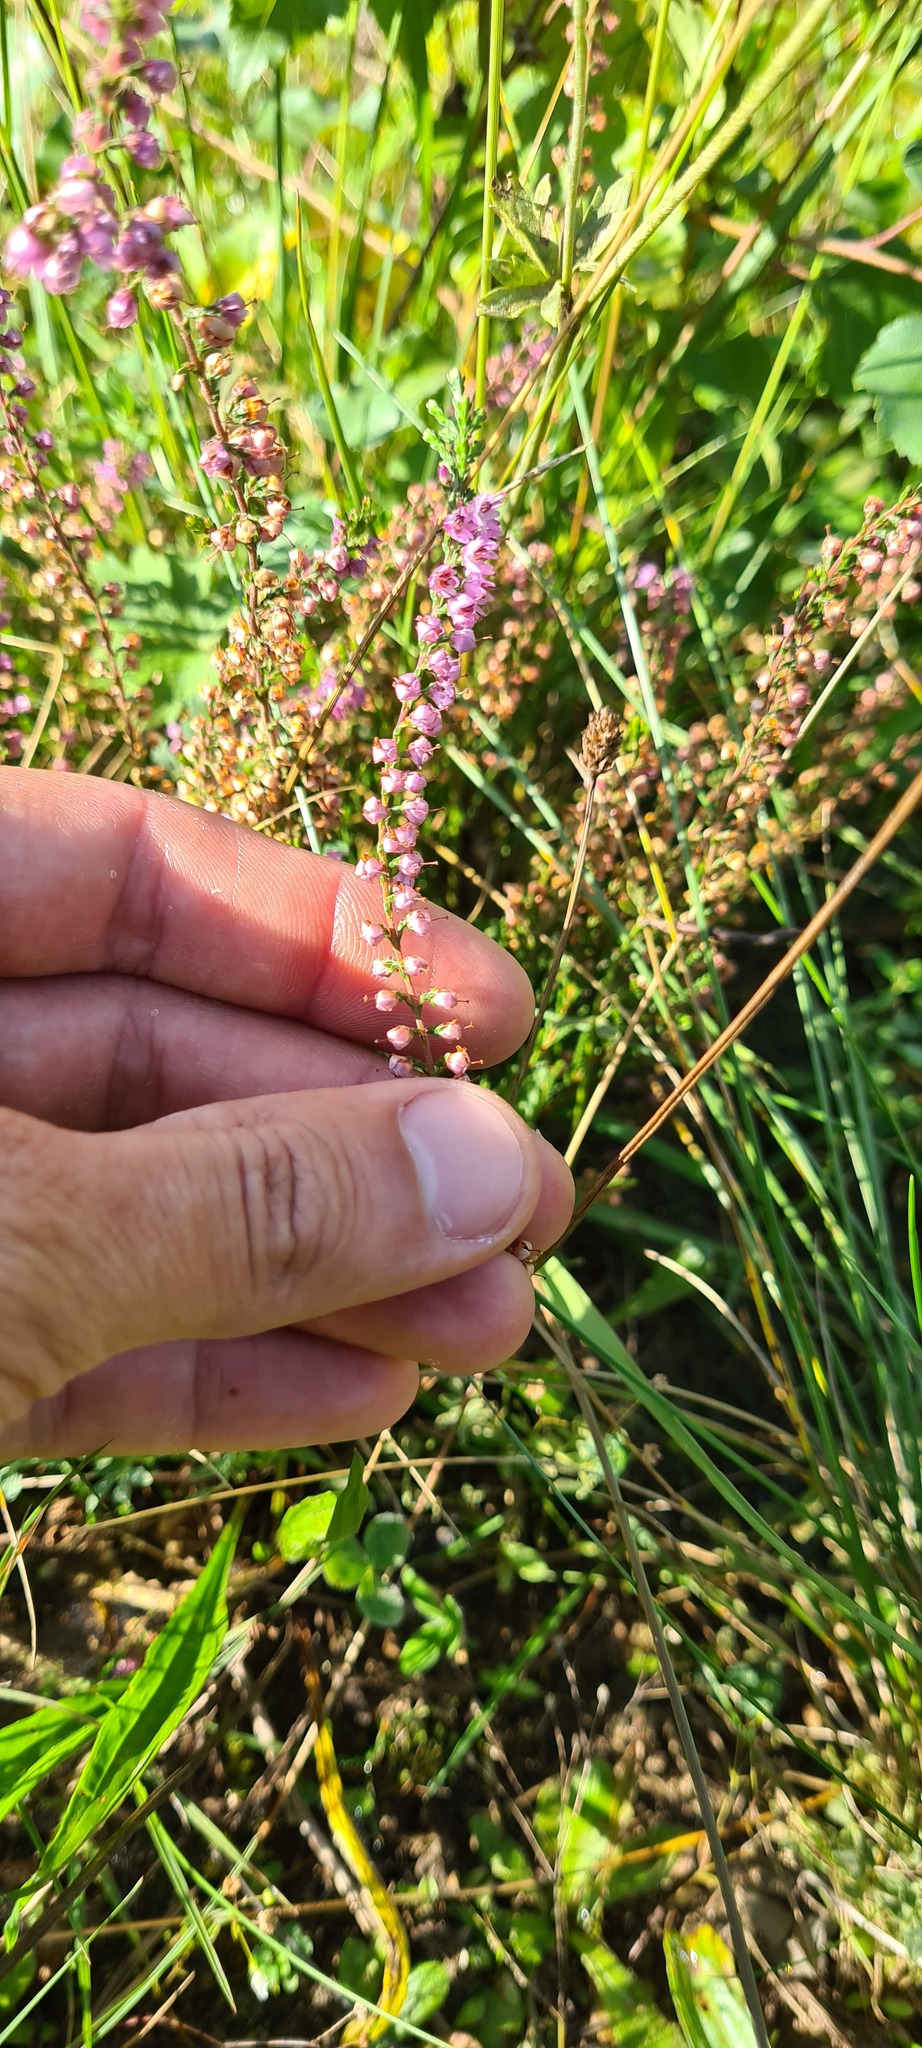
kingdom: Plantae
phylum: Tracheophyta
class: Magnoliopsida
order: Ericales
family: Ericaceae
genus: Calluna
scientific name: Calluna vulgaris
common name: Heather
